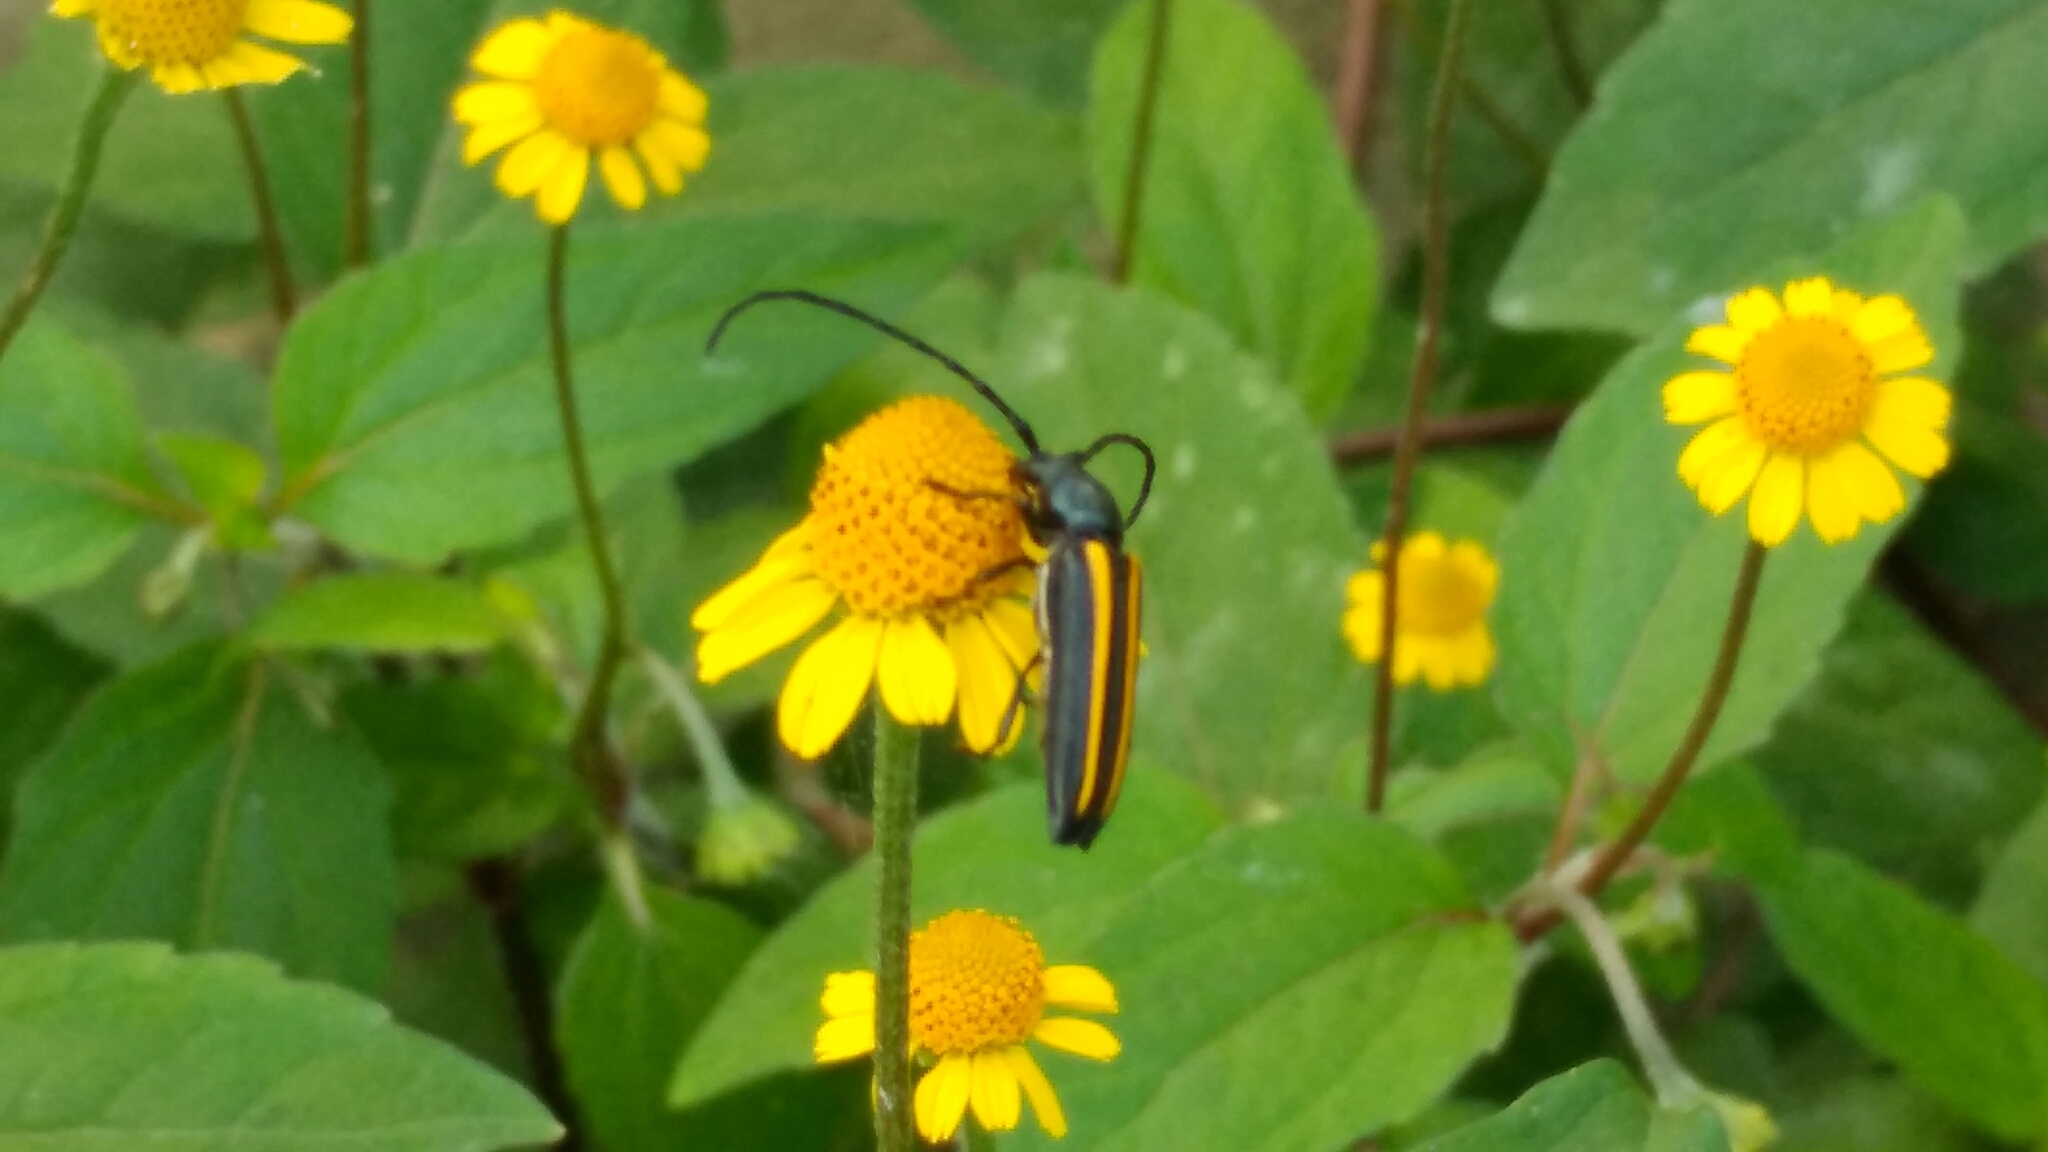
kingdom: Animalia
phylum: Arthropoda
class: Insecta
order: Coleoptera
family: Cerambycidae
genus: Lophalia
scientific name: Lophalia cyanicollis
